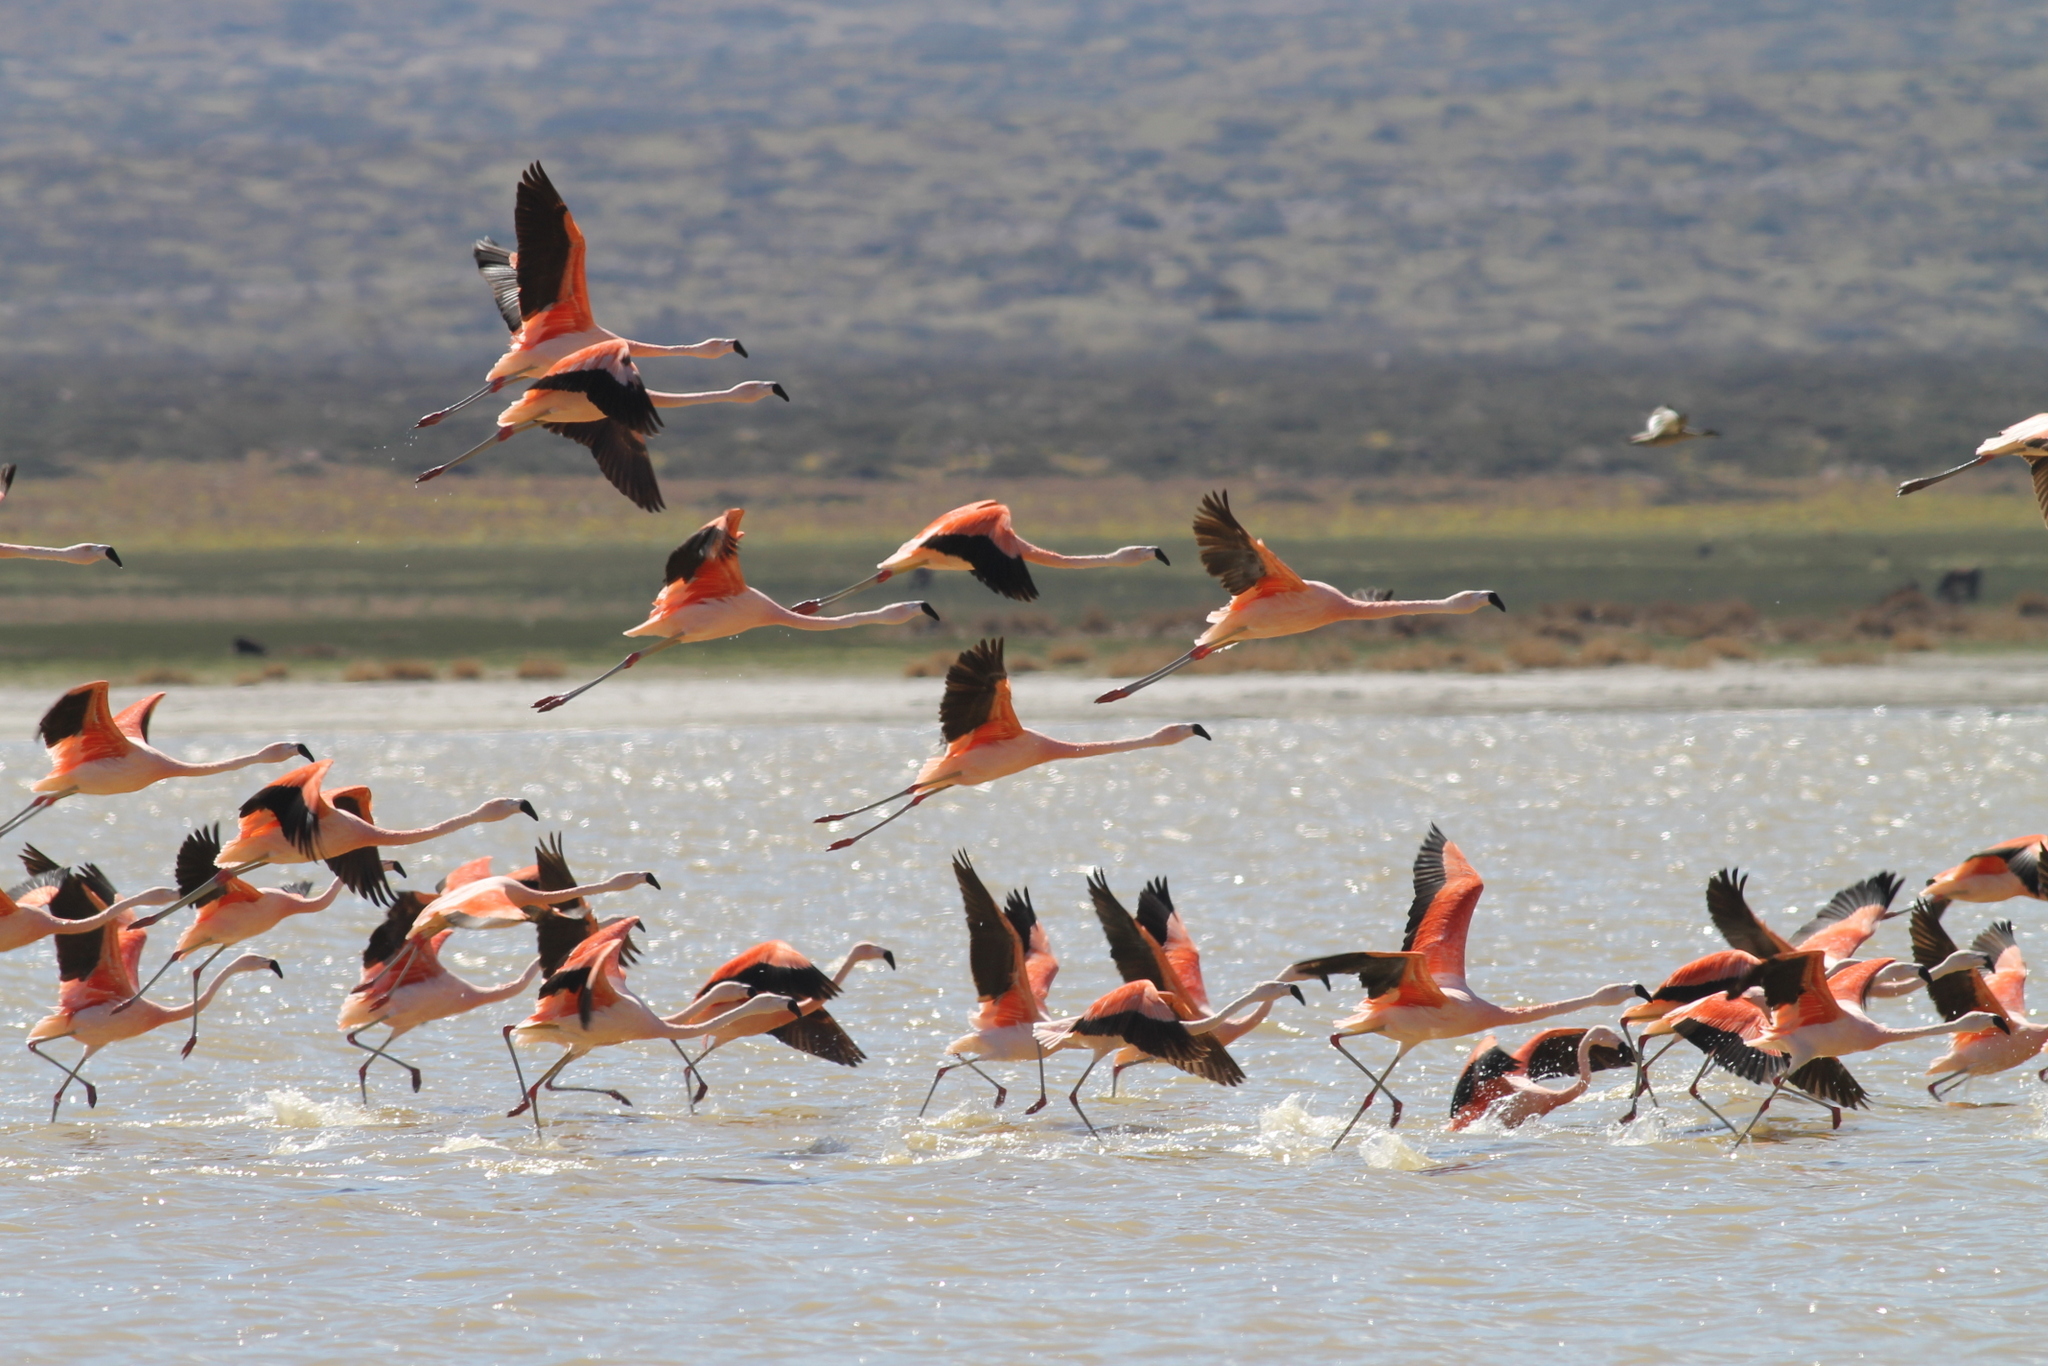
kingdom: Animalia
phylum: Chordata
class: Aves
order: Phoenicopteriformes
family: Phoenicopteridae
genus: Phoenicopterus
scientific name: Phoenicopterus chilensis
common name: Chilean flamingo
